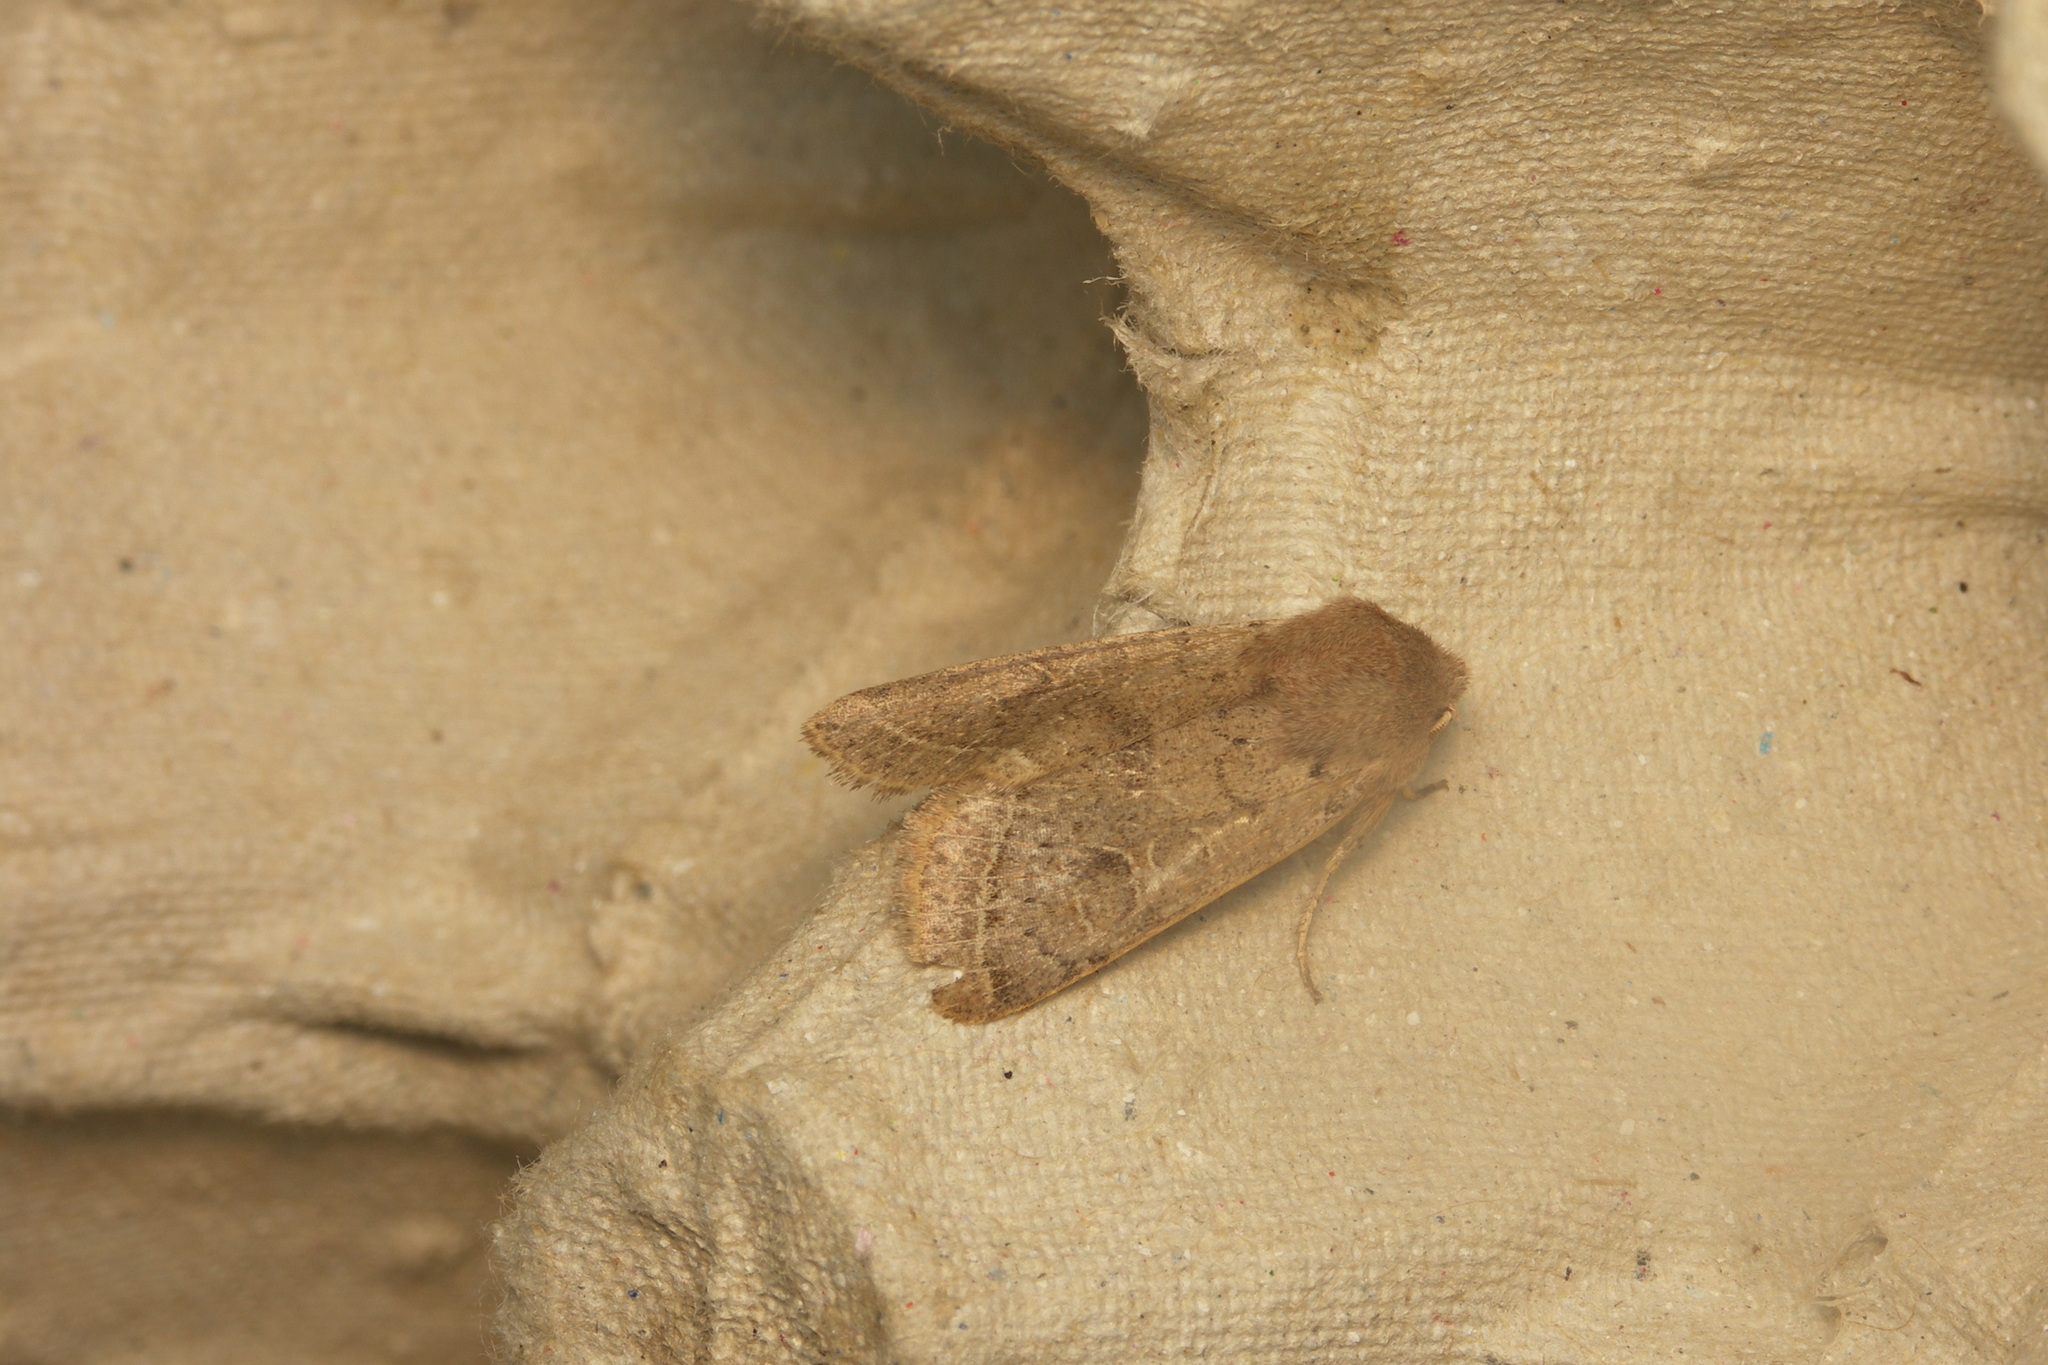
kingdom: Animalia
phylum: Arthropoda
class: Insecta
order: Lepidoptera
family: Noctuidae
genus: Orthosia
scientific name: Orthosia cerasi
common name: Common quaker
